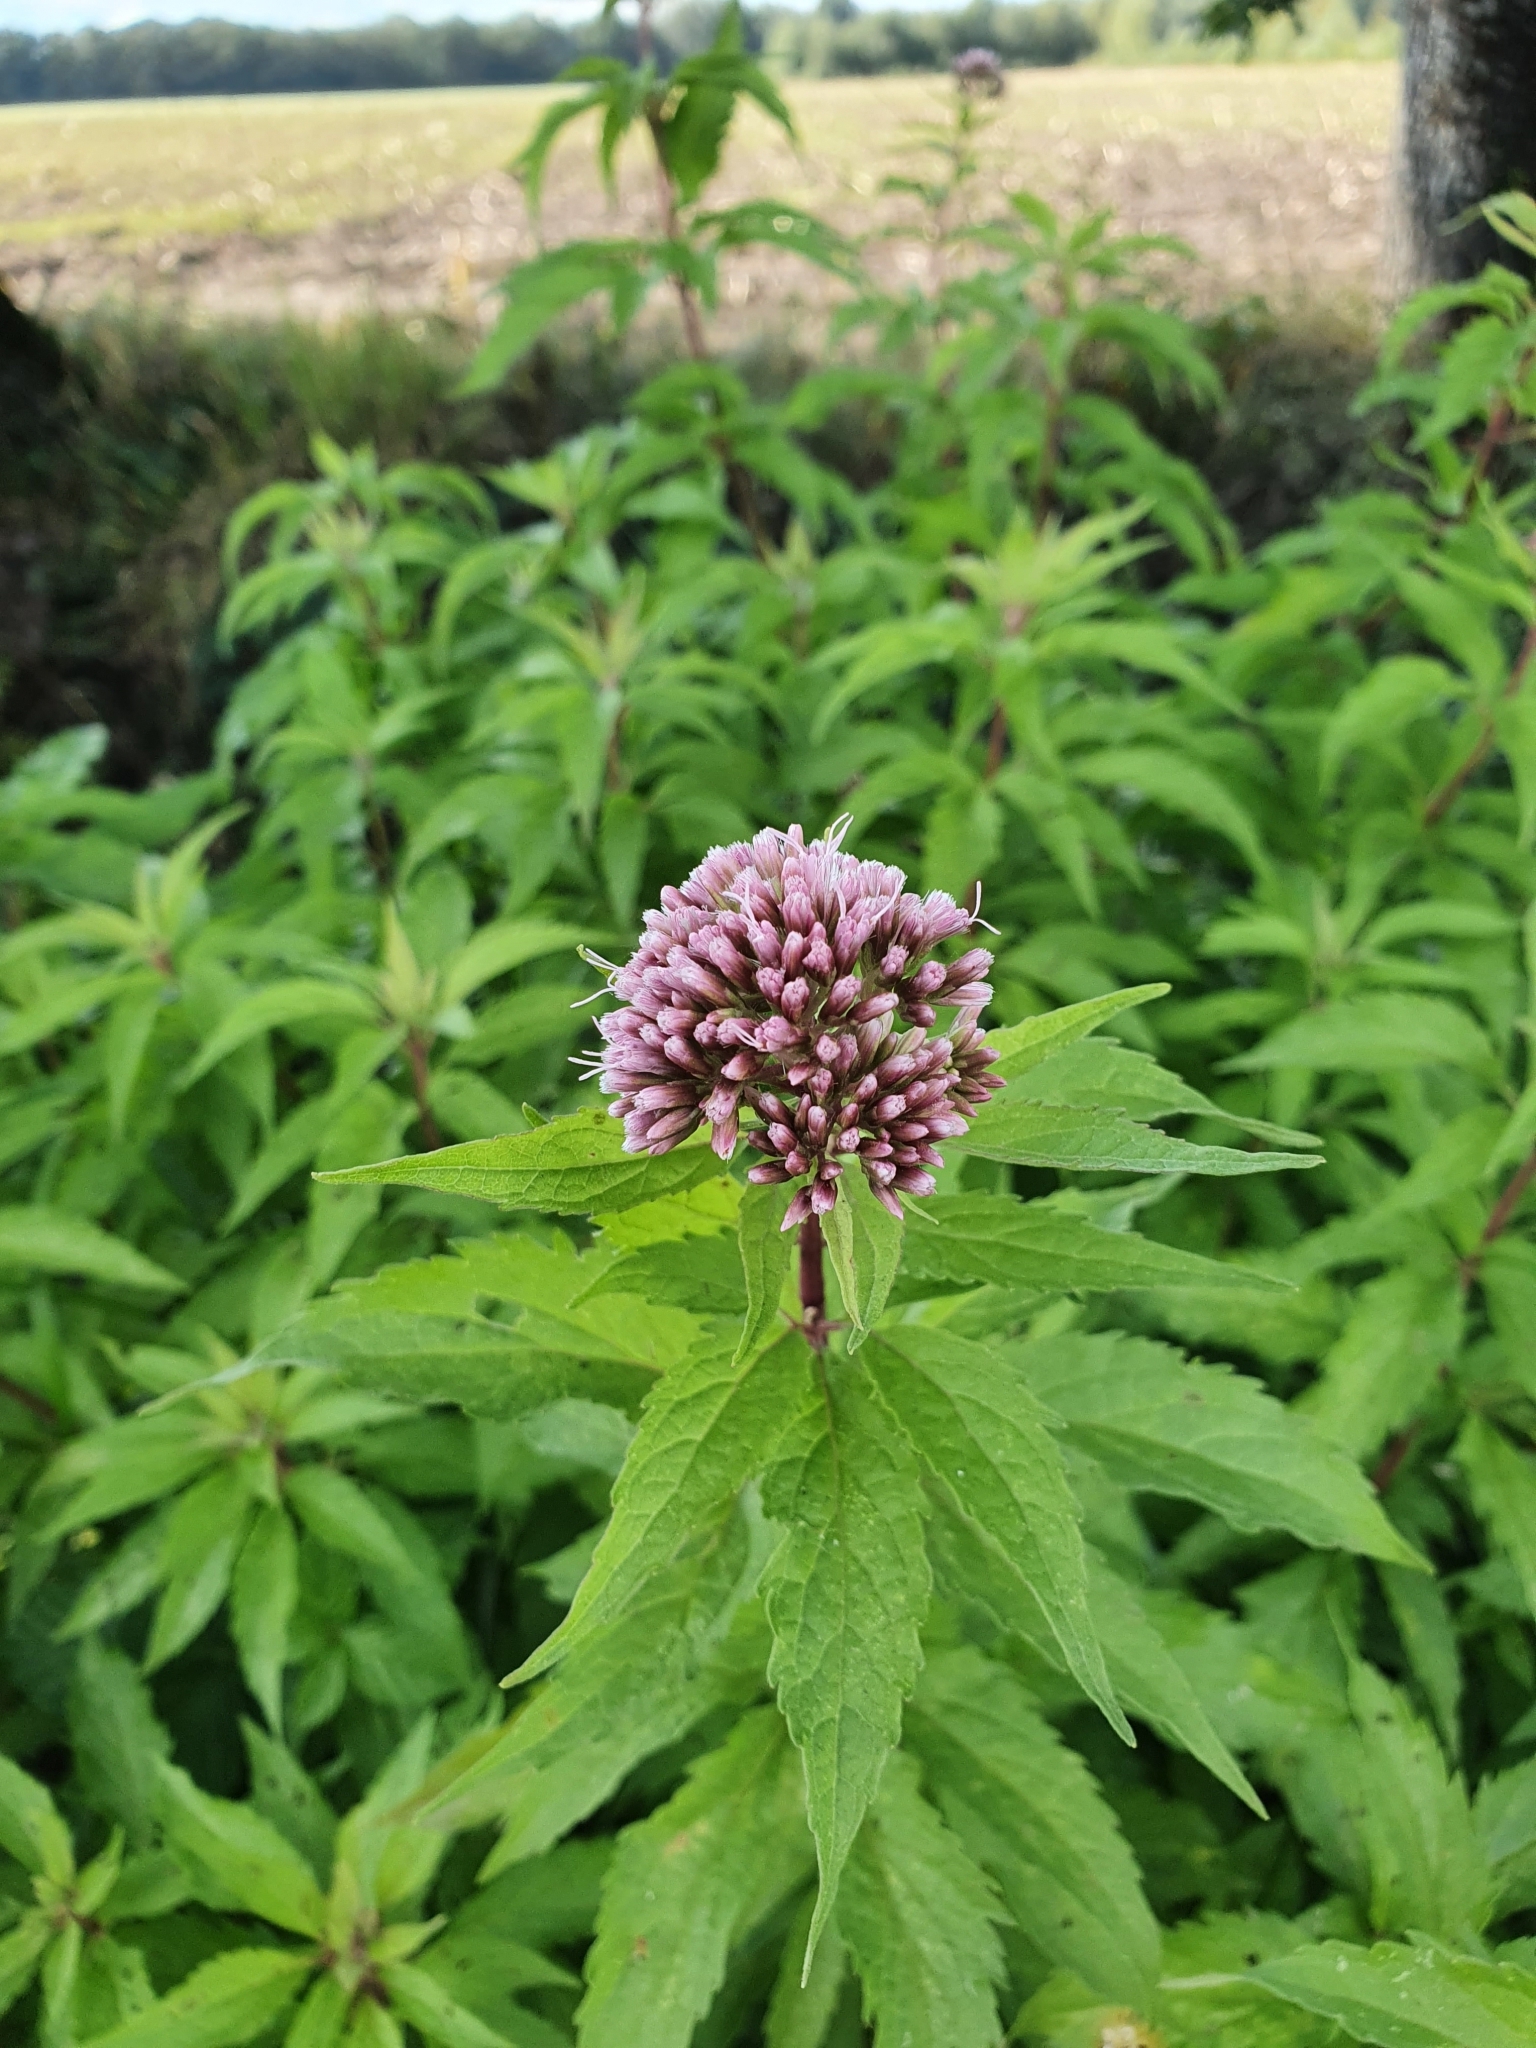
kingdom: Plantae
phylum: Tracheophyta
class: Magnoliopsida
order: Asterales
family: Asteraceae
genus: Eupatorium
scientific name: Eupatorium cannabinum
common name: Hemp-agrimony
